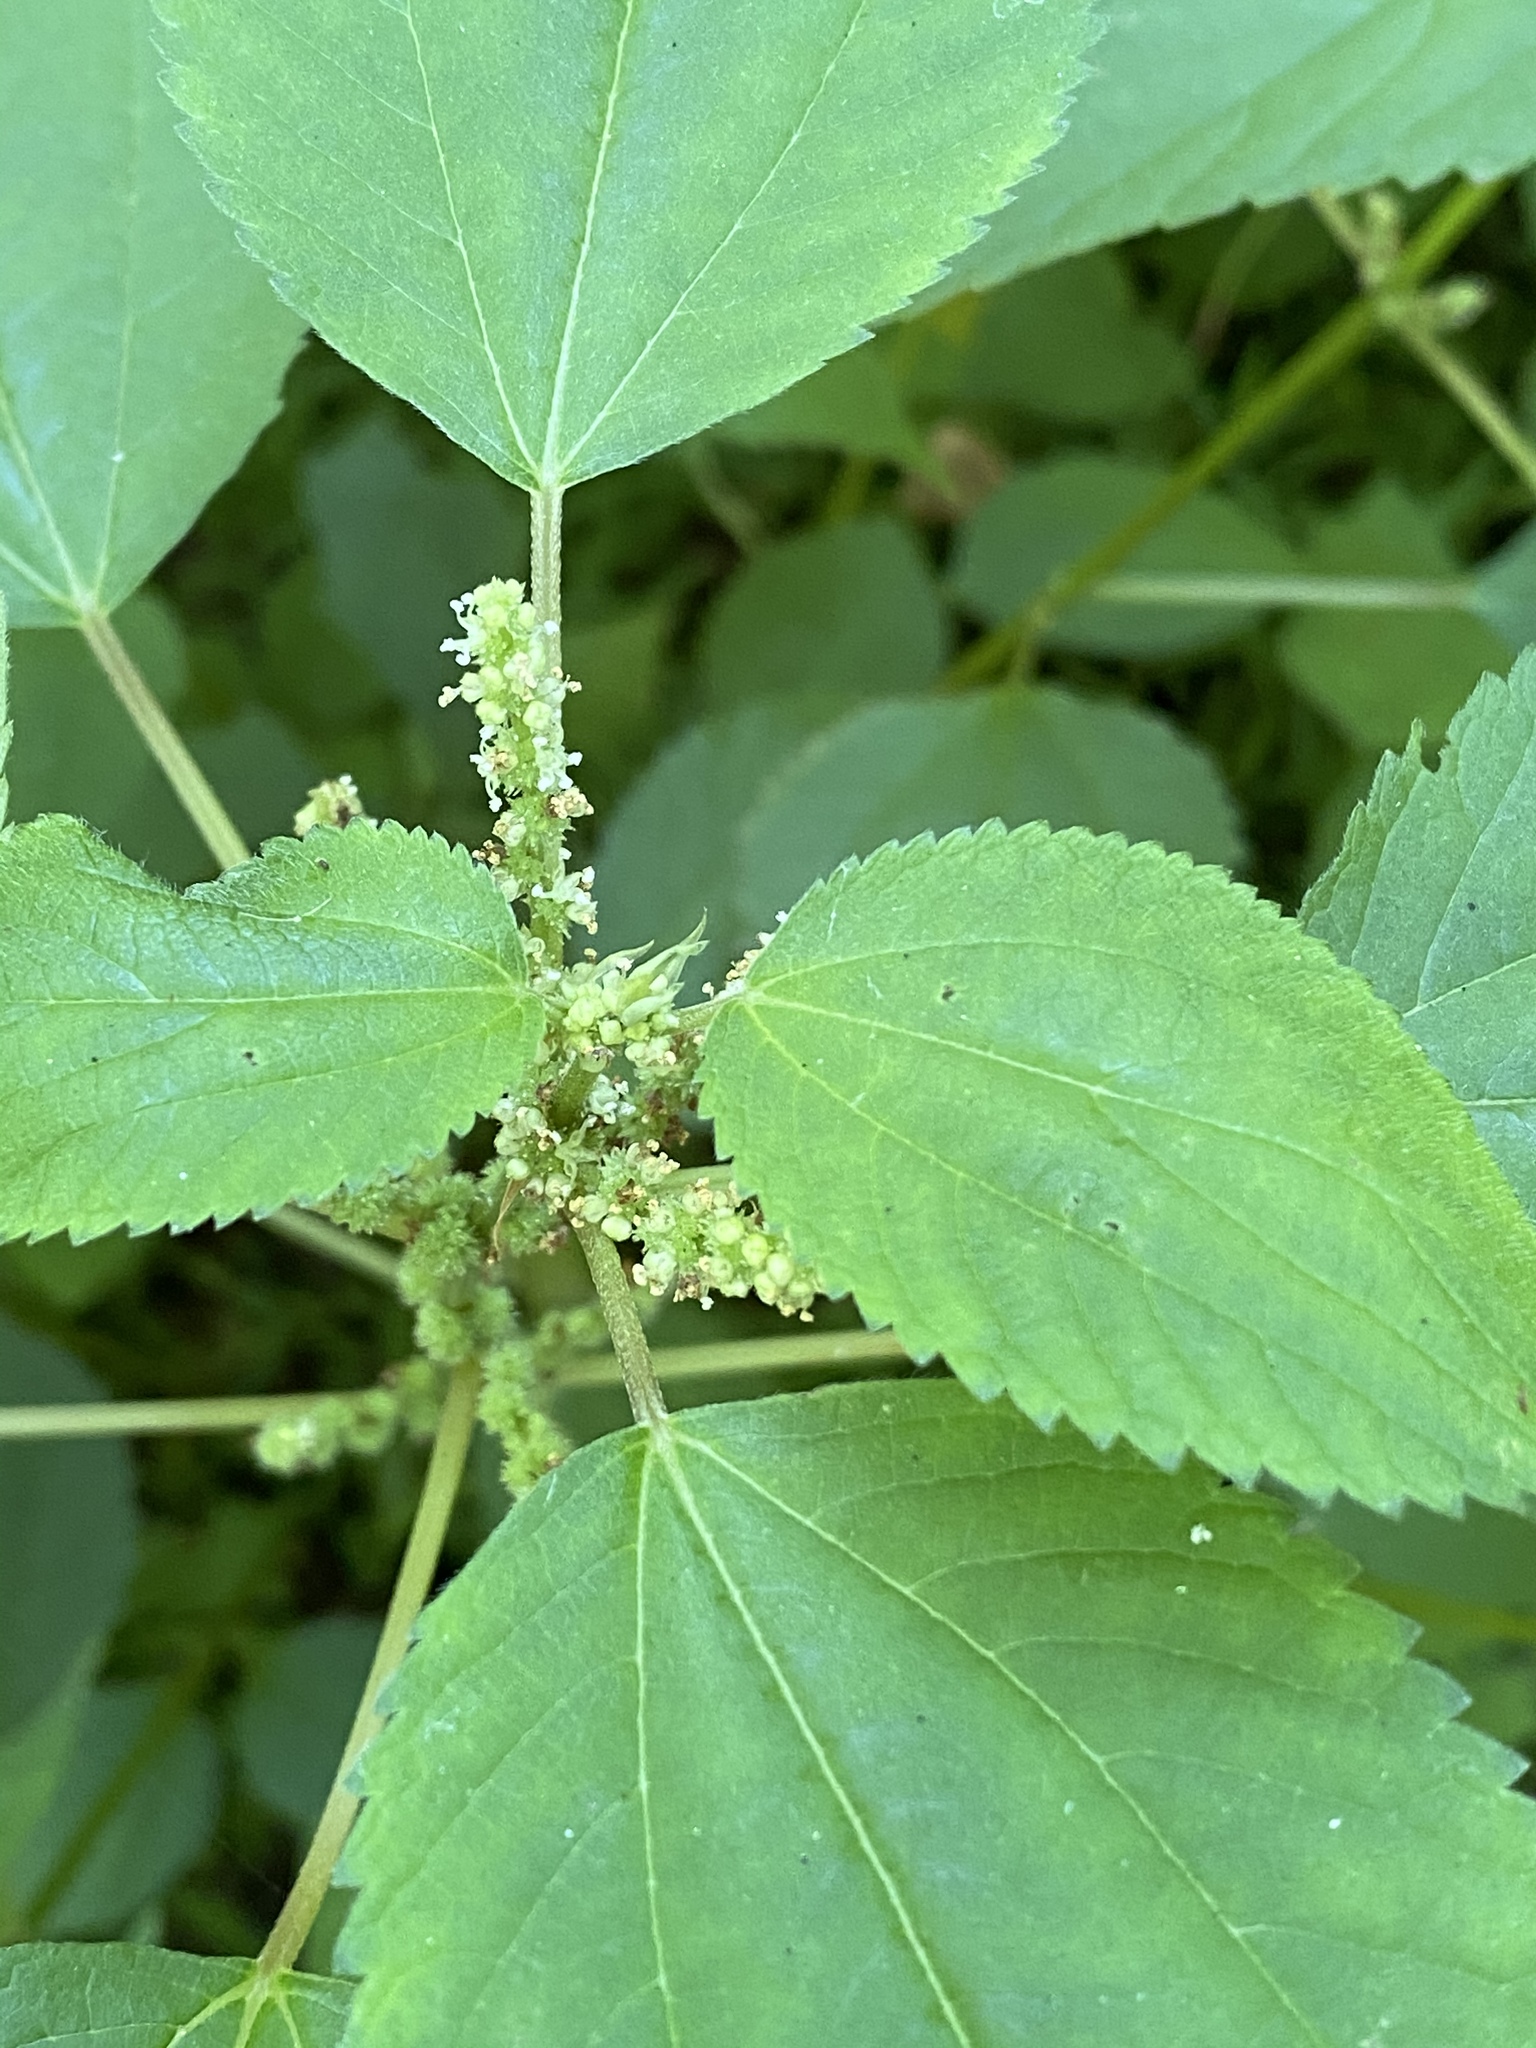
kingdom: Plantae
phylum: Tracheophyta
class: Magnoliopsida
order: Rosales
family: Urticaceae
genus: Boehmeria
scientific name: Boehmeria cylindrica
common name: Bog-hemp
